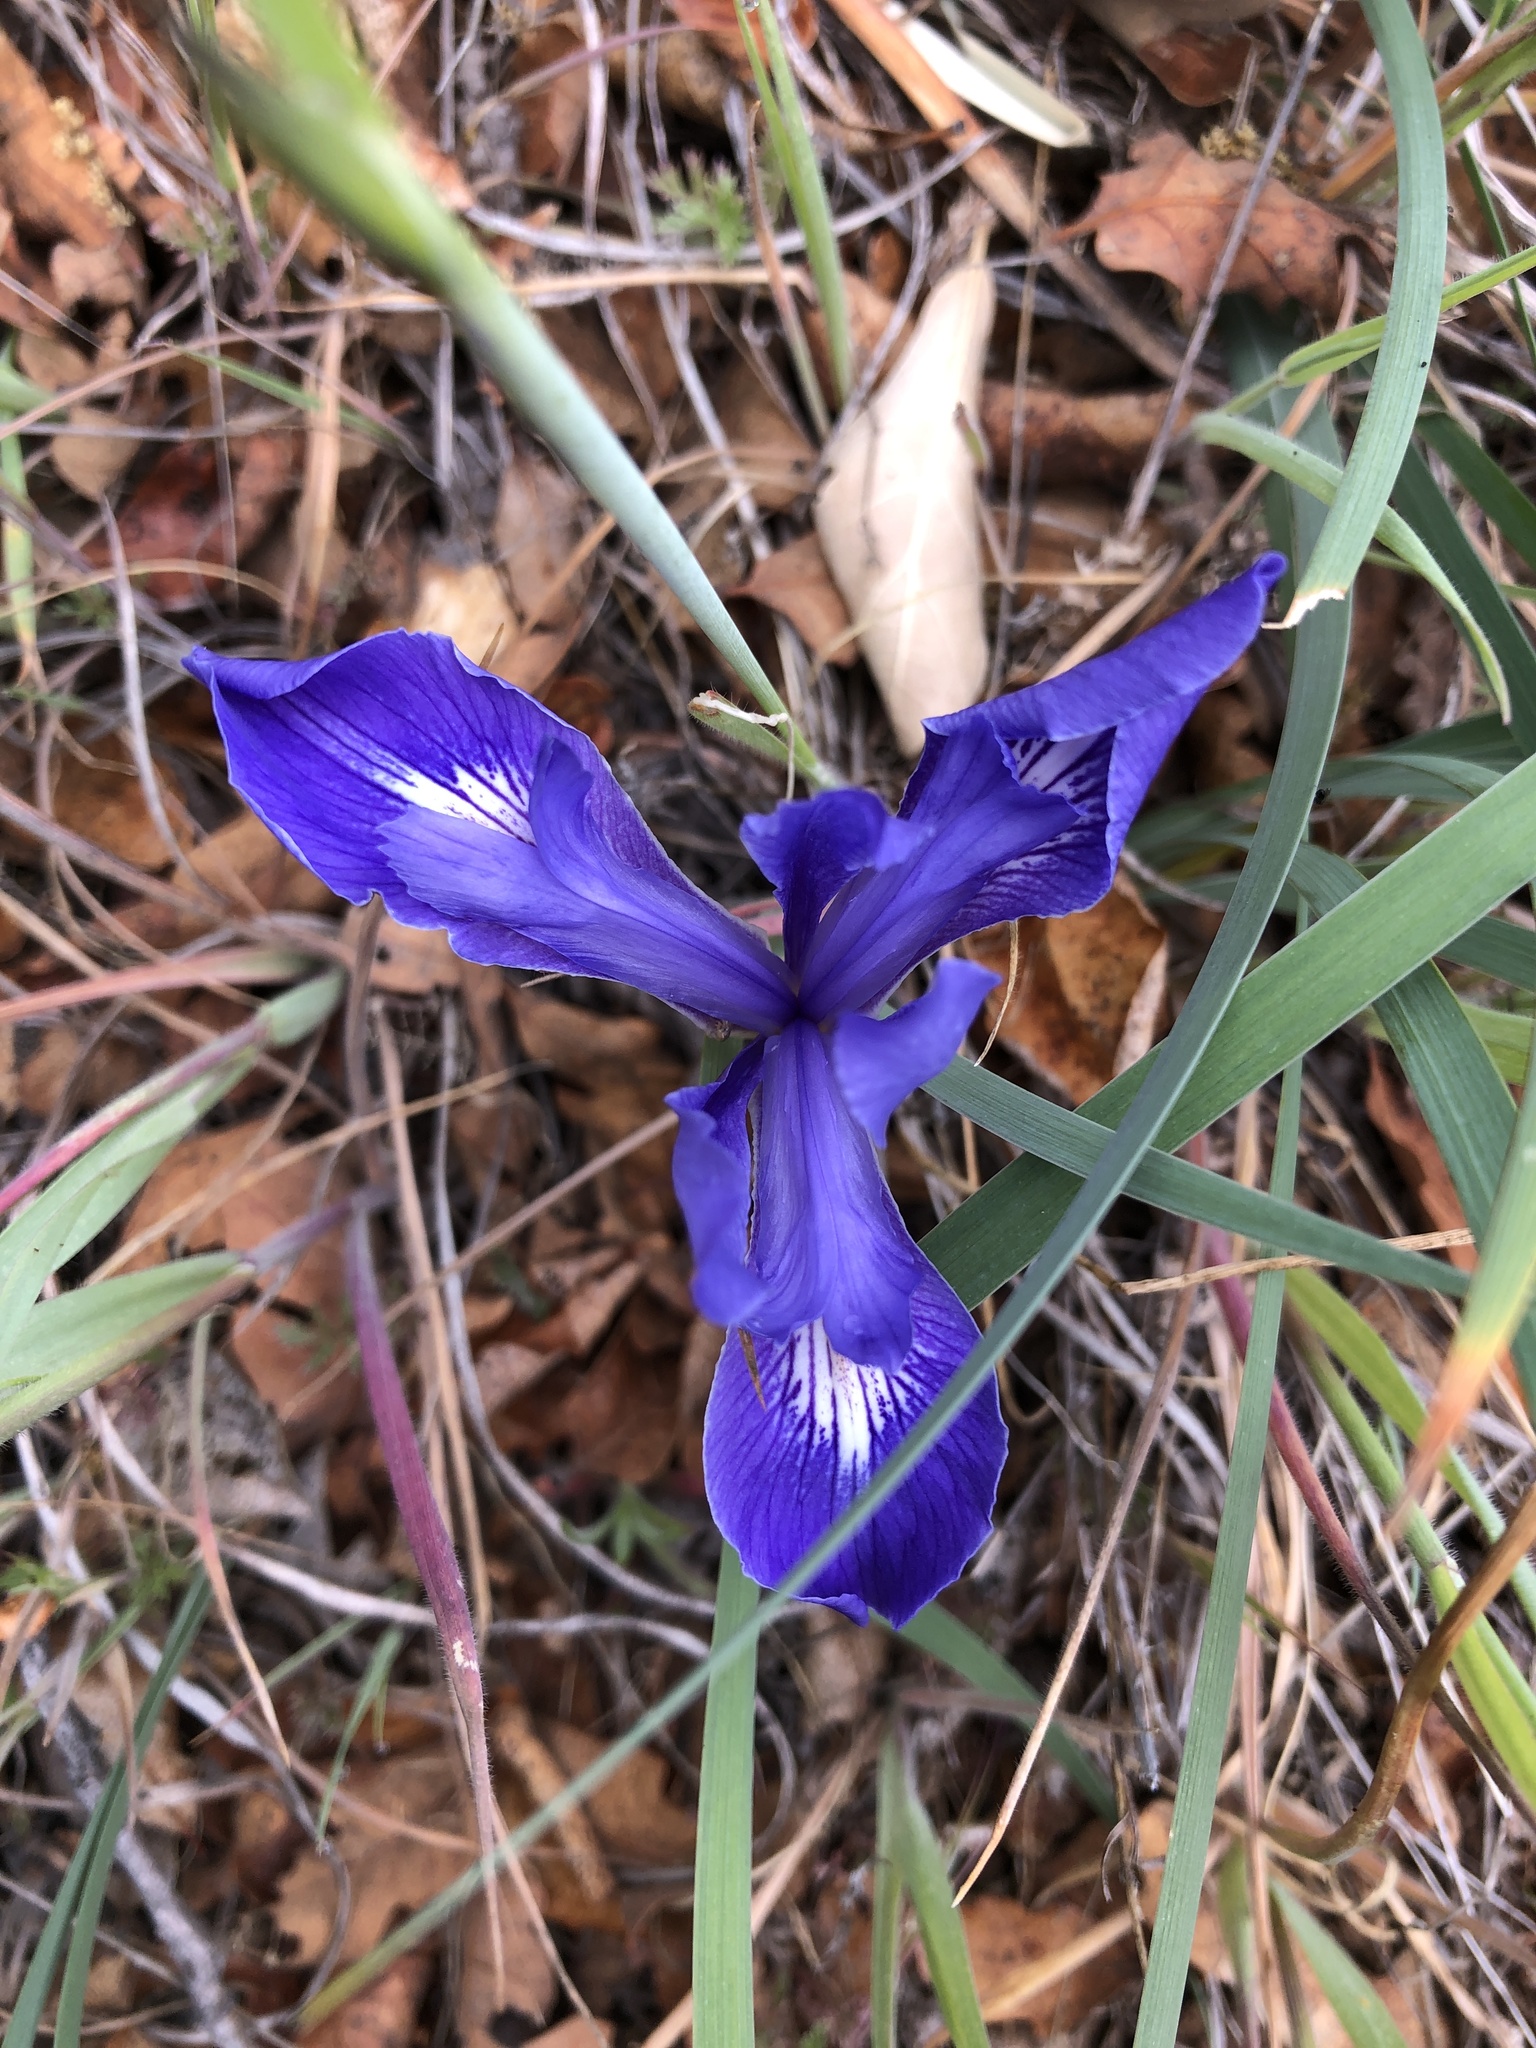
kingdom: Plantae
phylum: Tracheophyta
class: Liliopsida
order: Asparagales
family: Iridaceae
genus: Iris
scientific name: Iris macrosiphon
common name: Ground iris
